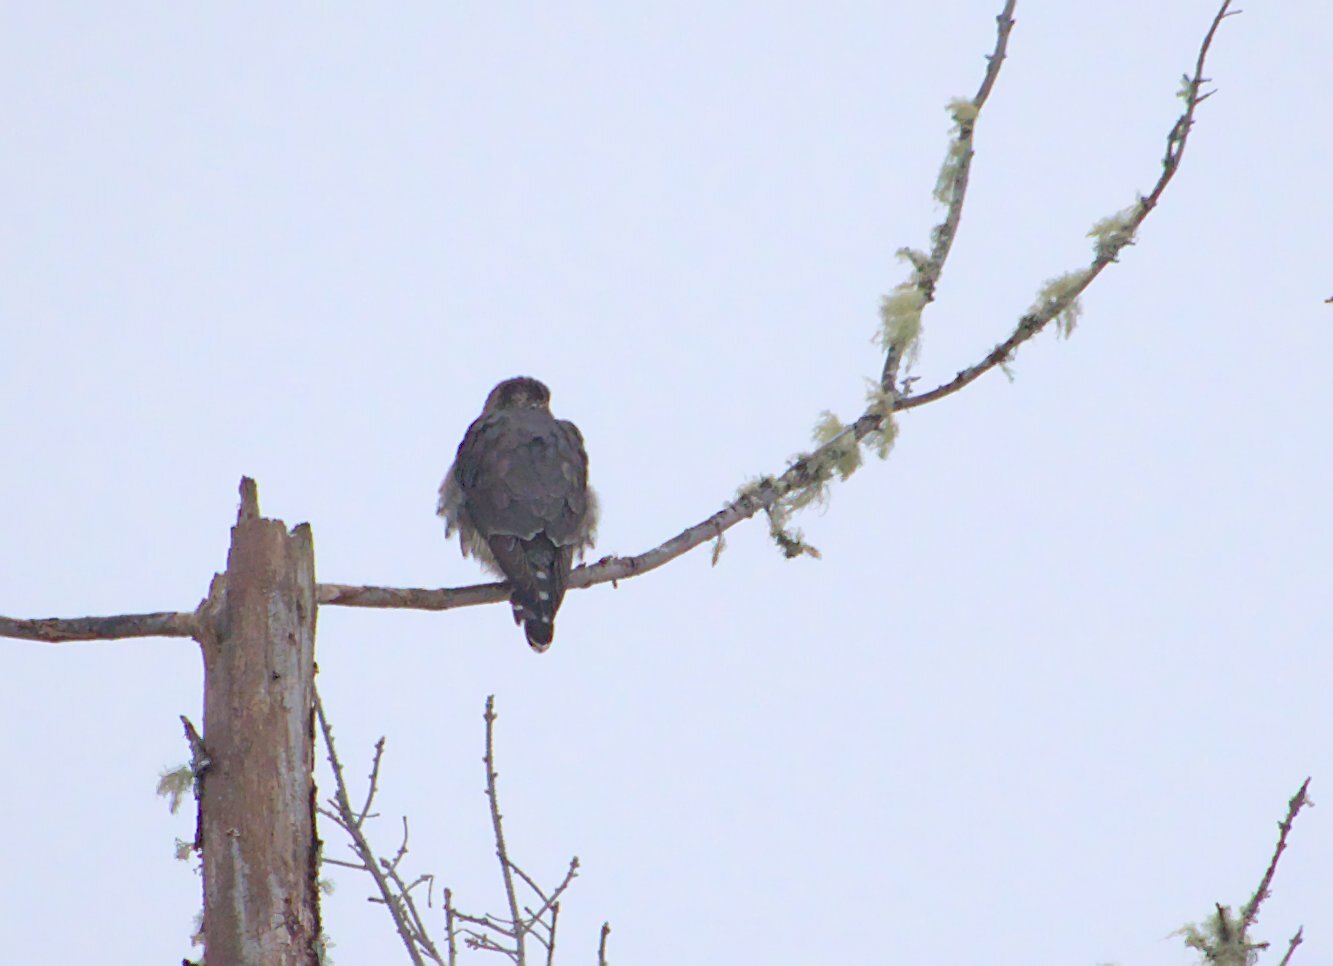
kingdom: Animalia
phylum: Chordata
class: Aves
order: Falconiformes
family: Falconidae
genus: Falco
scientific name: Falco columbarius
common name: Merlin
